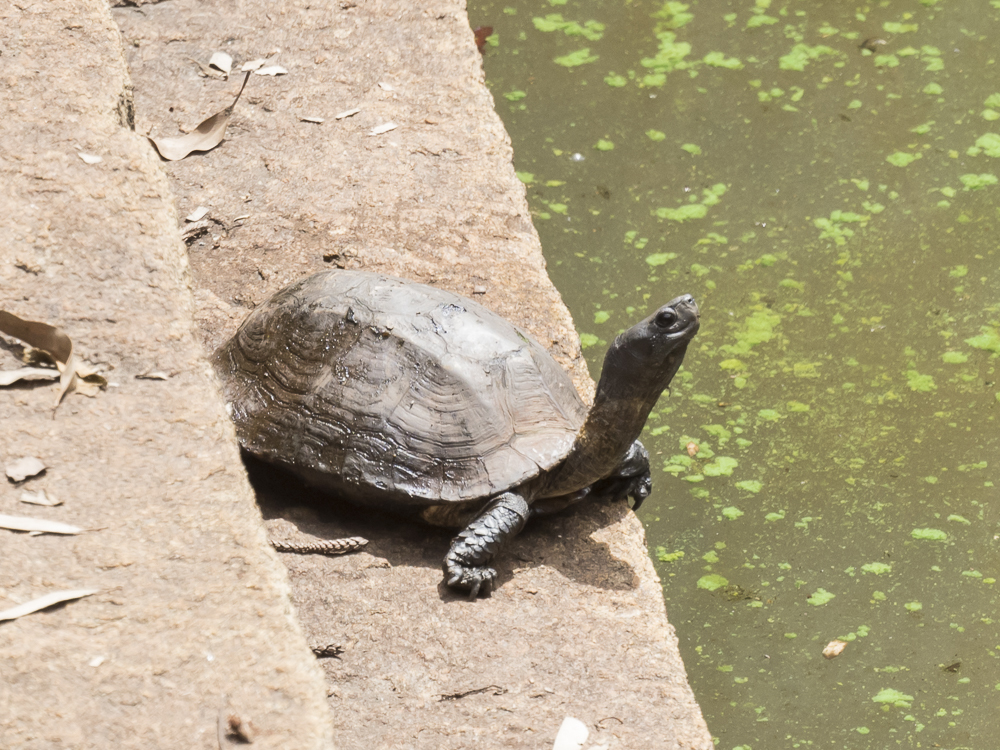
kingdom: Animalia
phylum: Chordata
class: Testudines
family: Geoemydidae
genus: Melanochelys
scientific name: Melanochelys trijuga
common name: Indian black turtle
